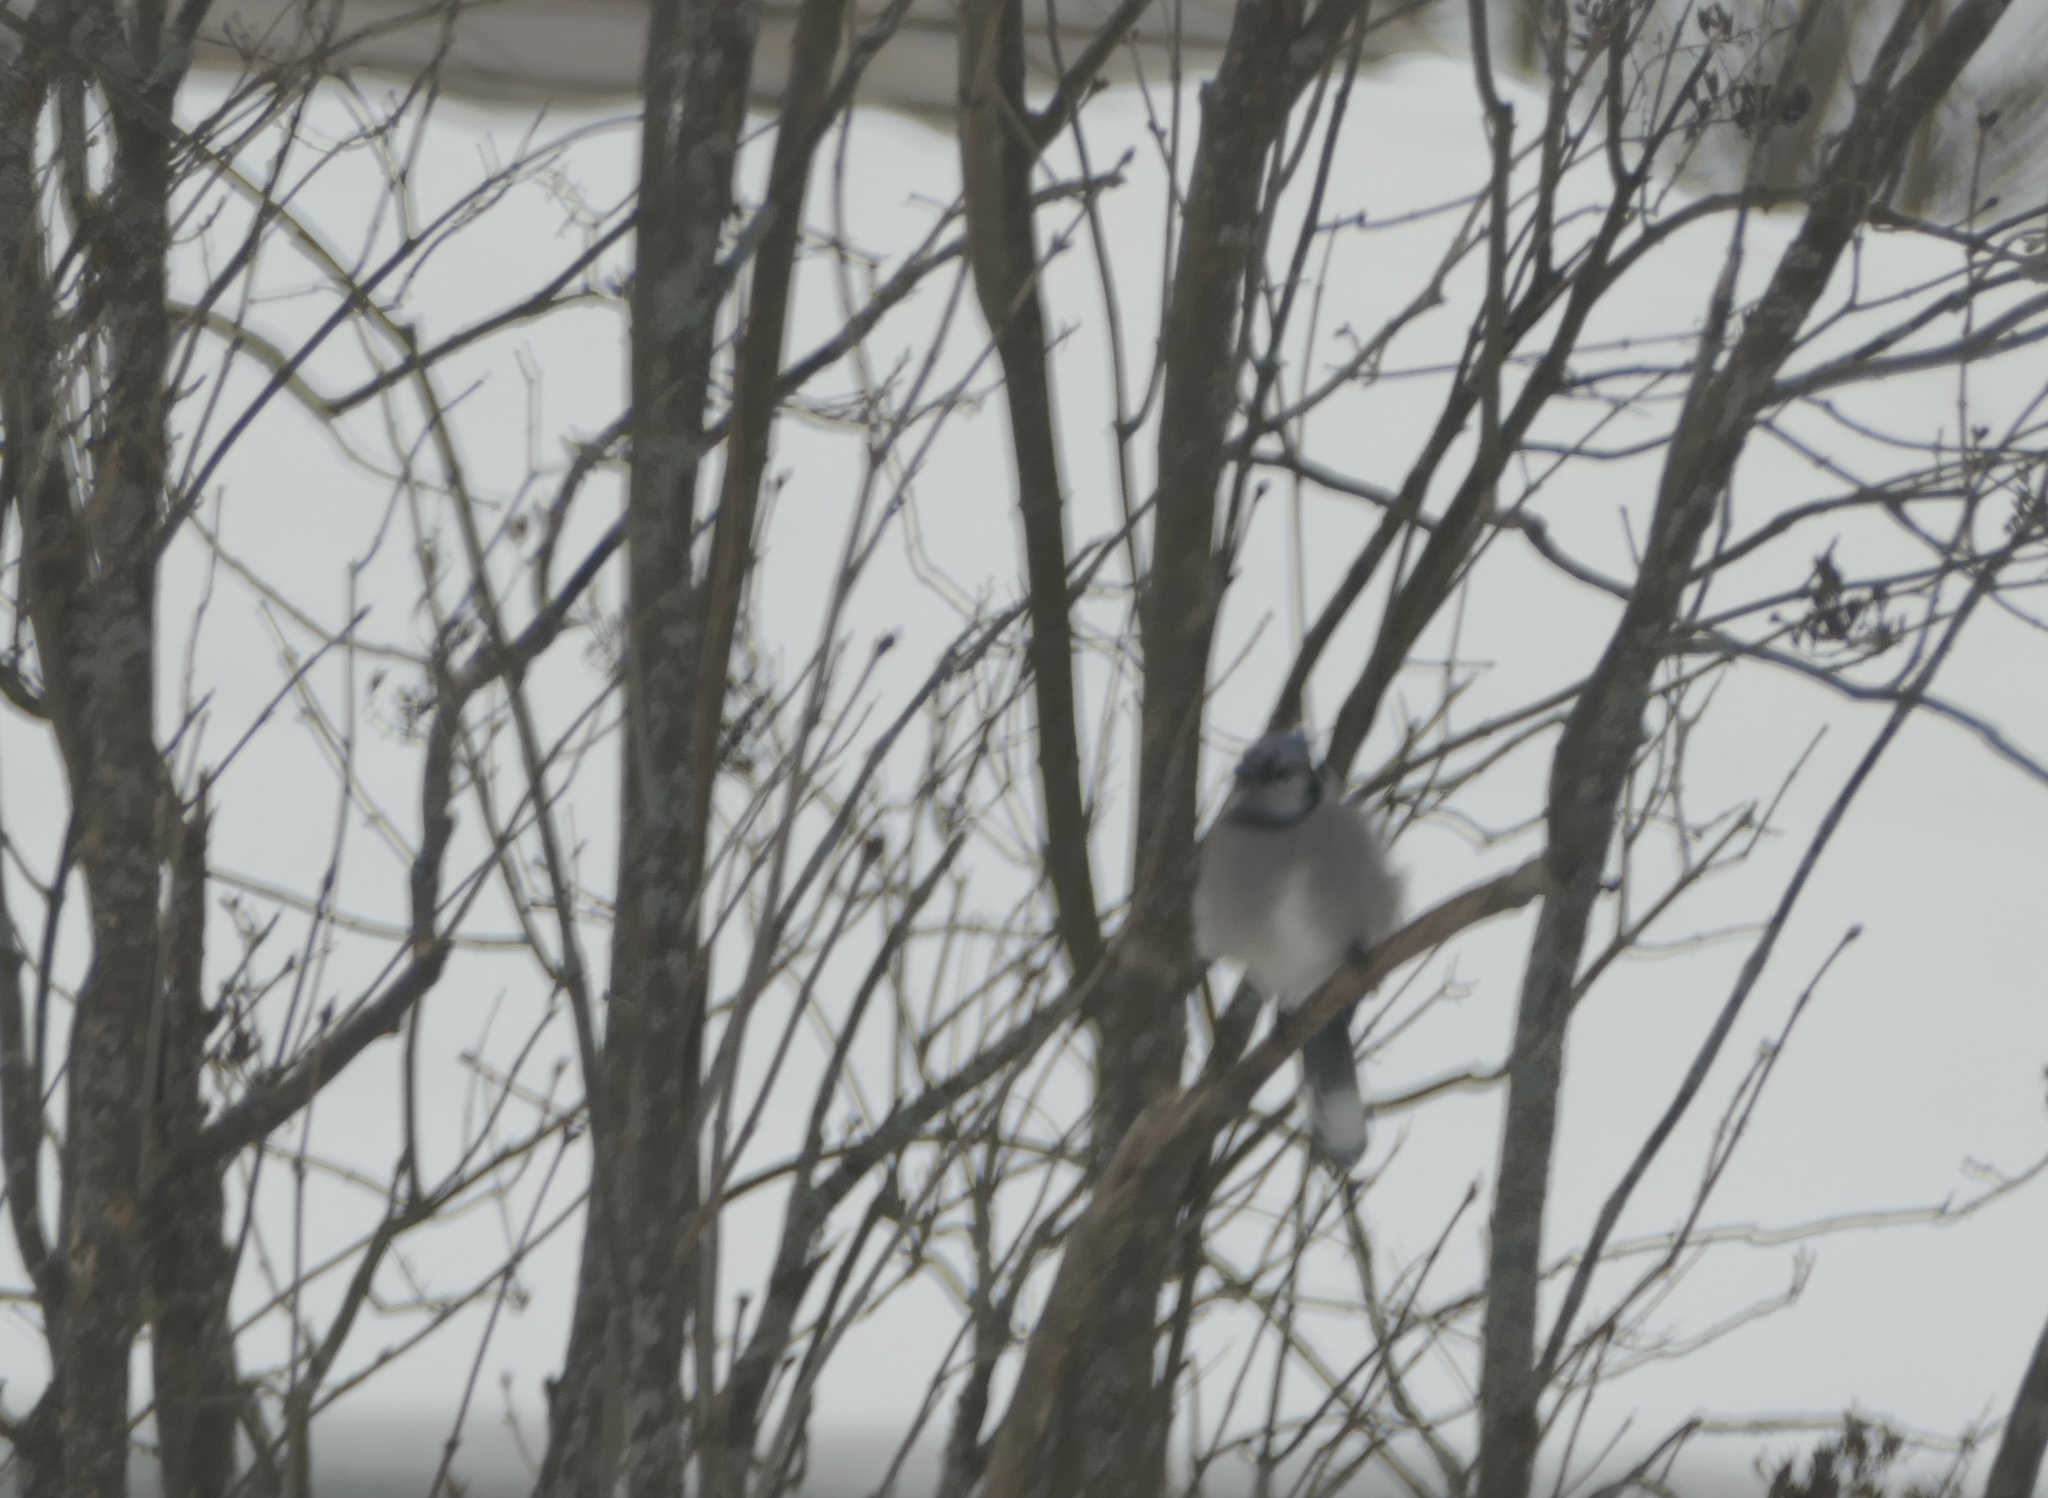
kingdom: Animalia
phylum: Chordata
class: Aves
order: Passeriformes
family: Corvidae
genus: Cyanocitta
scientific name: Cyanocitta cristata
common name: Blue jay
